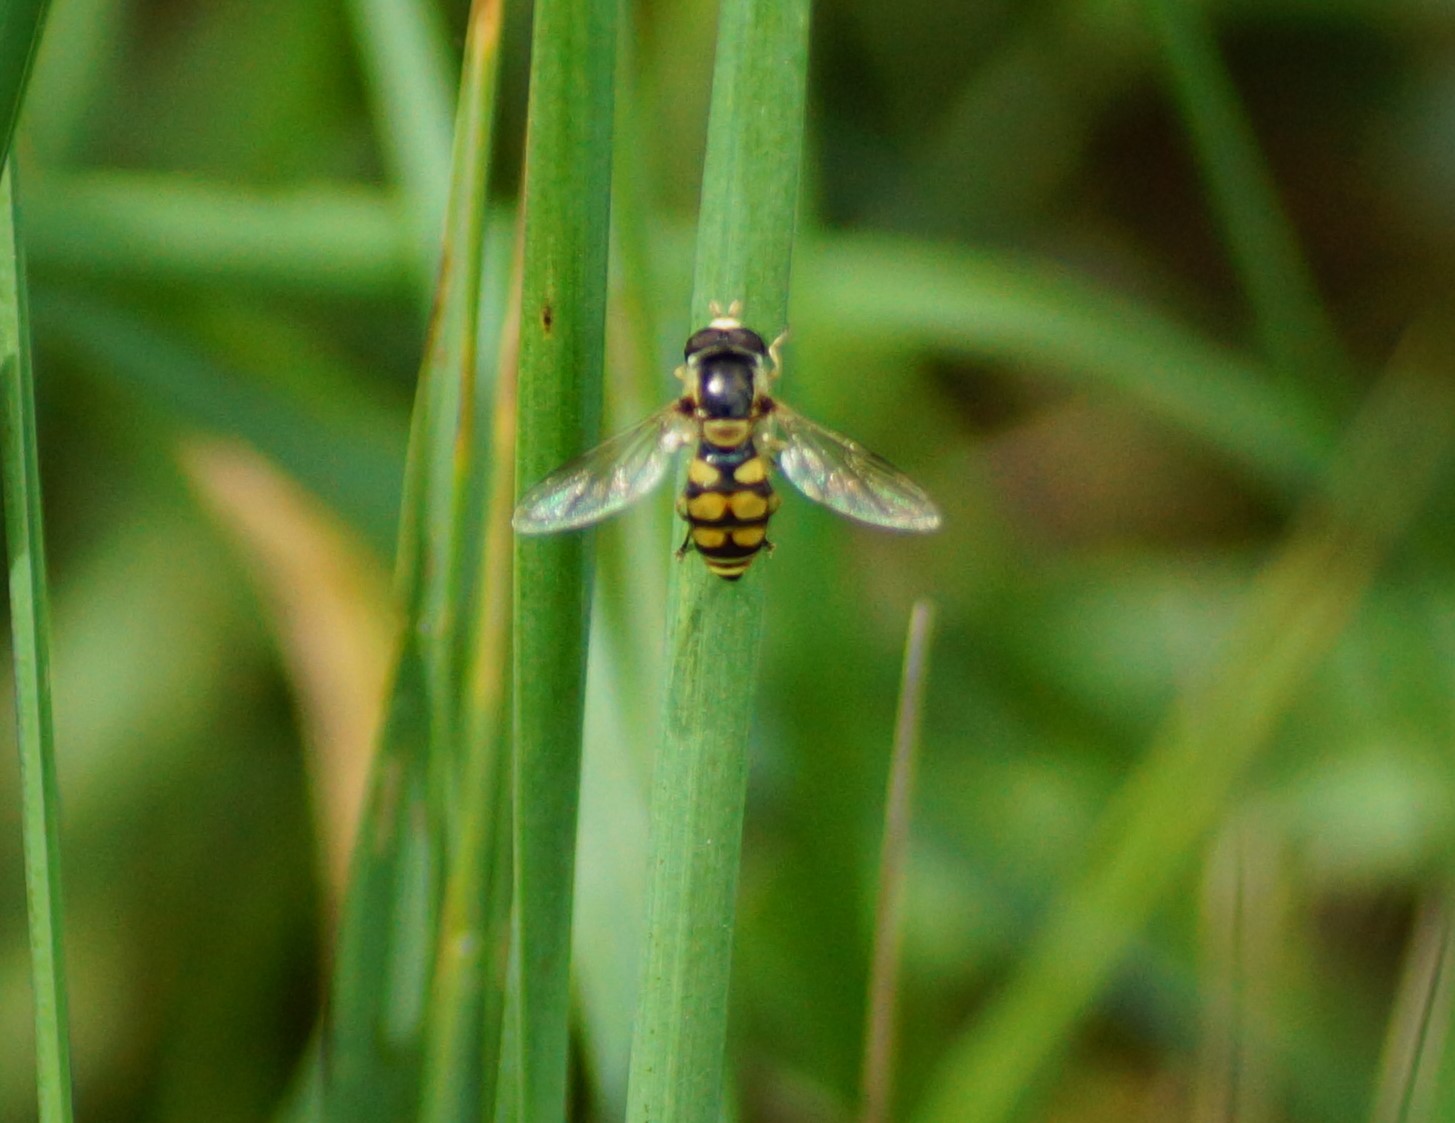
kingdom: Animalia
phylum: Arthropoda
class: Insecta
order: Diptera
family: Syrphidae
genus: Simosyrphus
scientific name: Simosyrphus grandicornis
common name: Hoverfly
